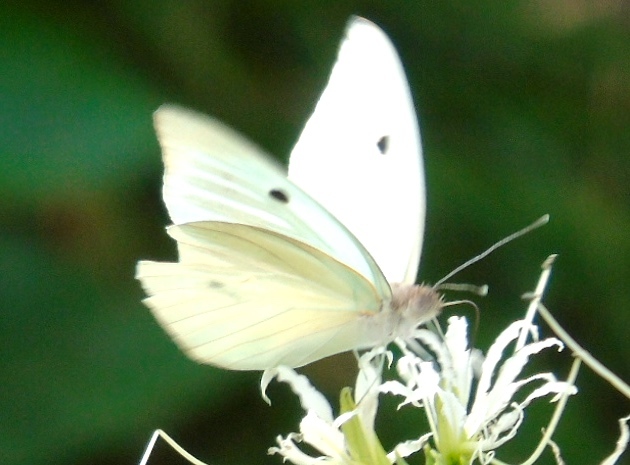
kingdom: Animalia
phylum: Arthropoda
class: Insecta
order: Lepidoptera
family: Pieridae
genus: Ganyra
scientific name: Ganyra josephina
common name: Giant white
